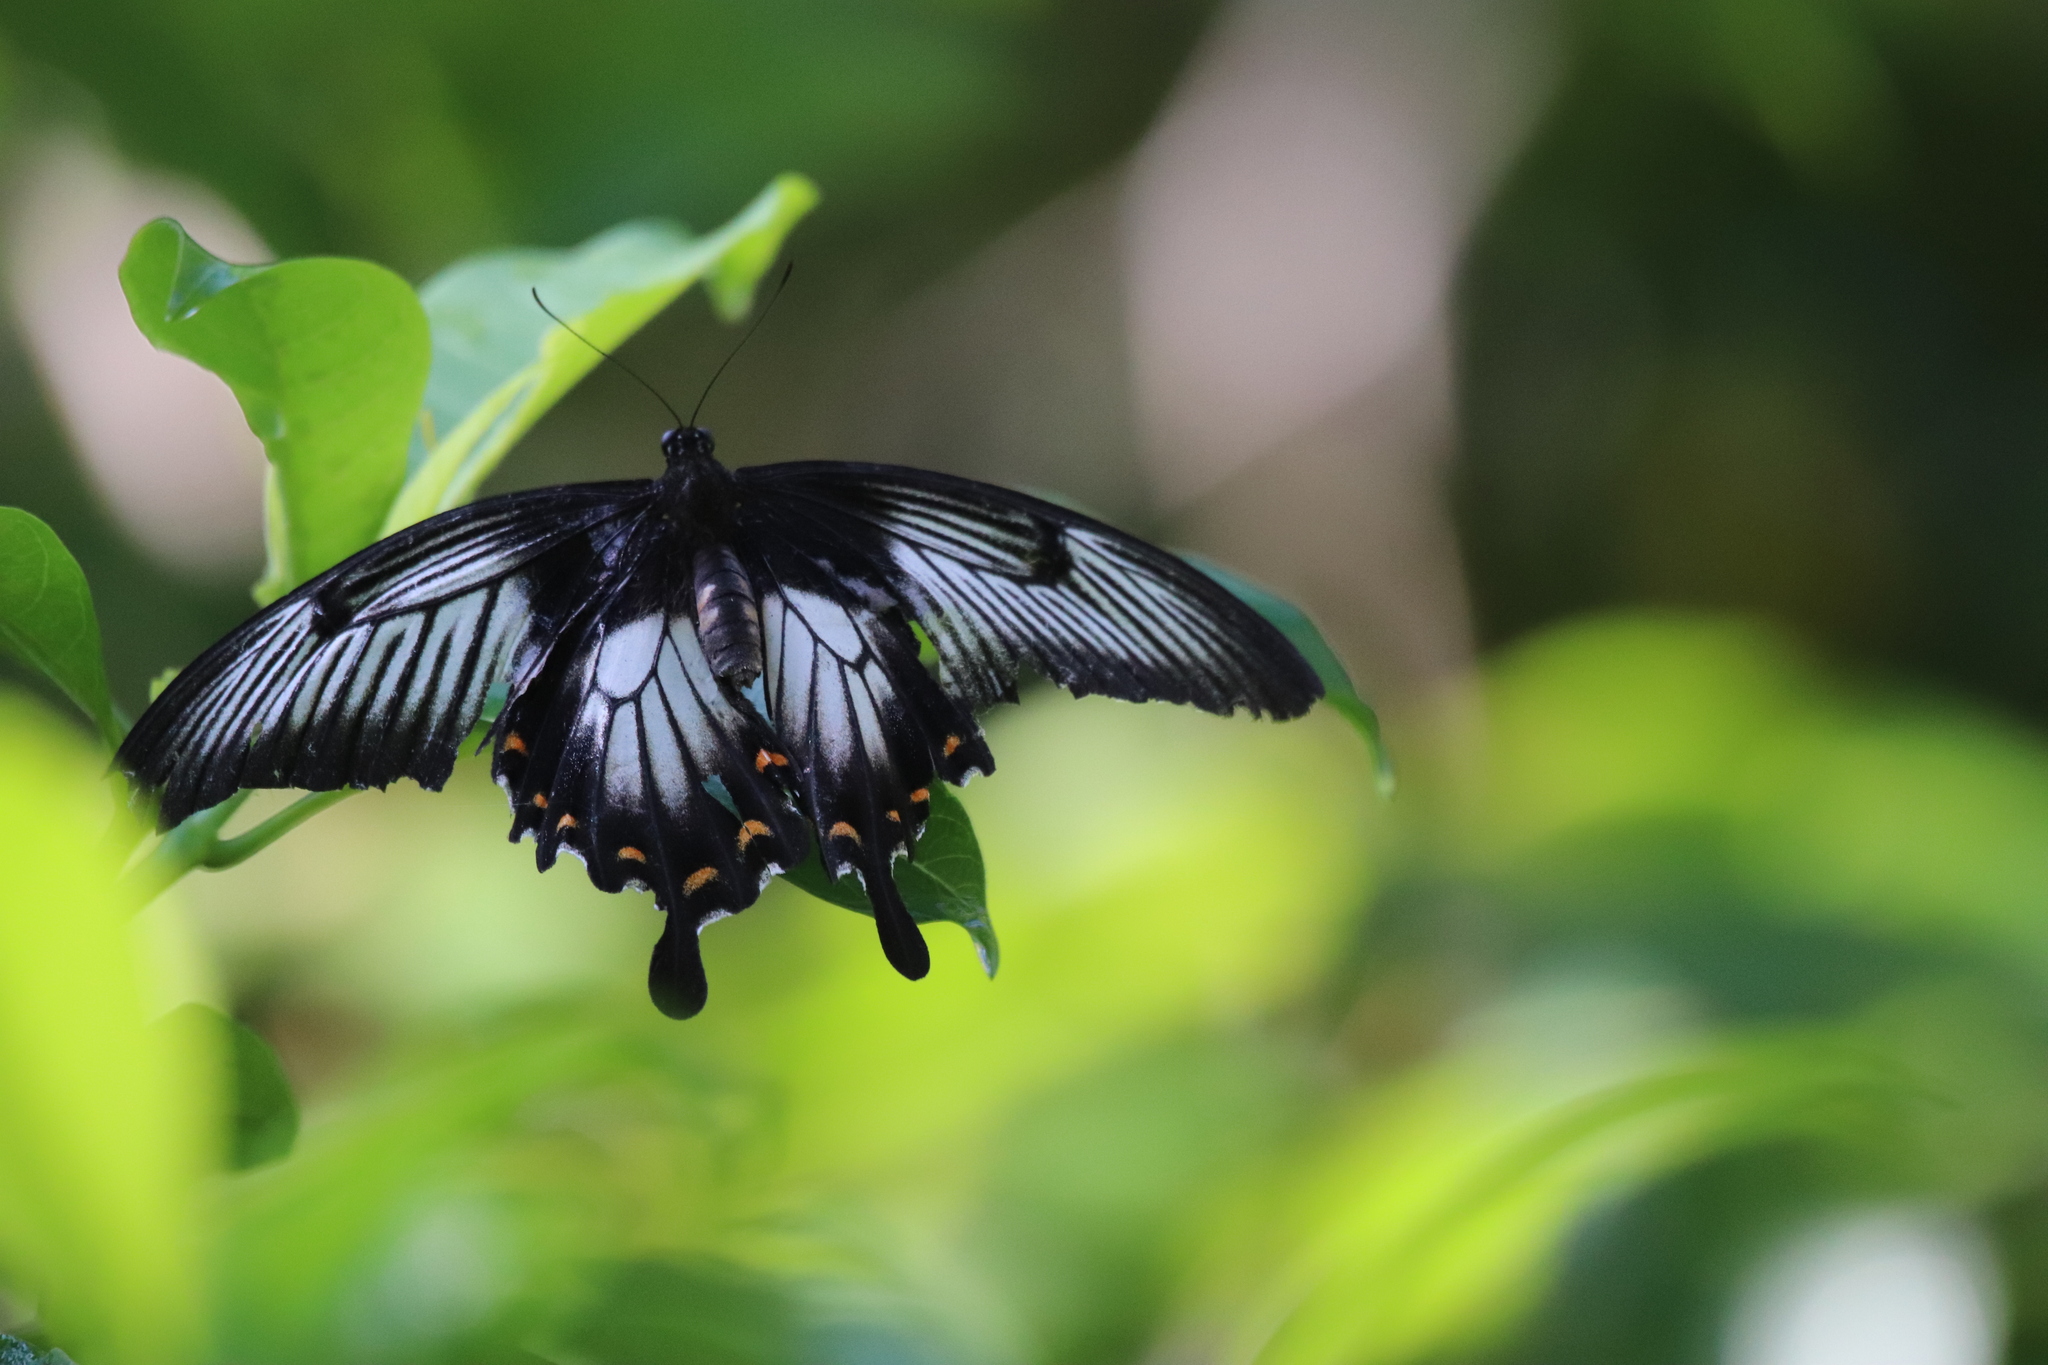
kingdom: Animalia
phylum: Arthropoda
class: Insecta
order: Lepidoptera
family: Papilionidae
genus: Papilio
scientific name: Papilio ascalaphus
